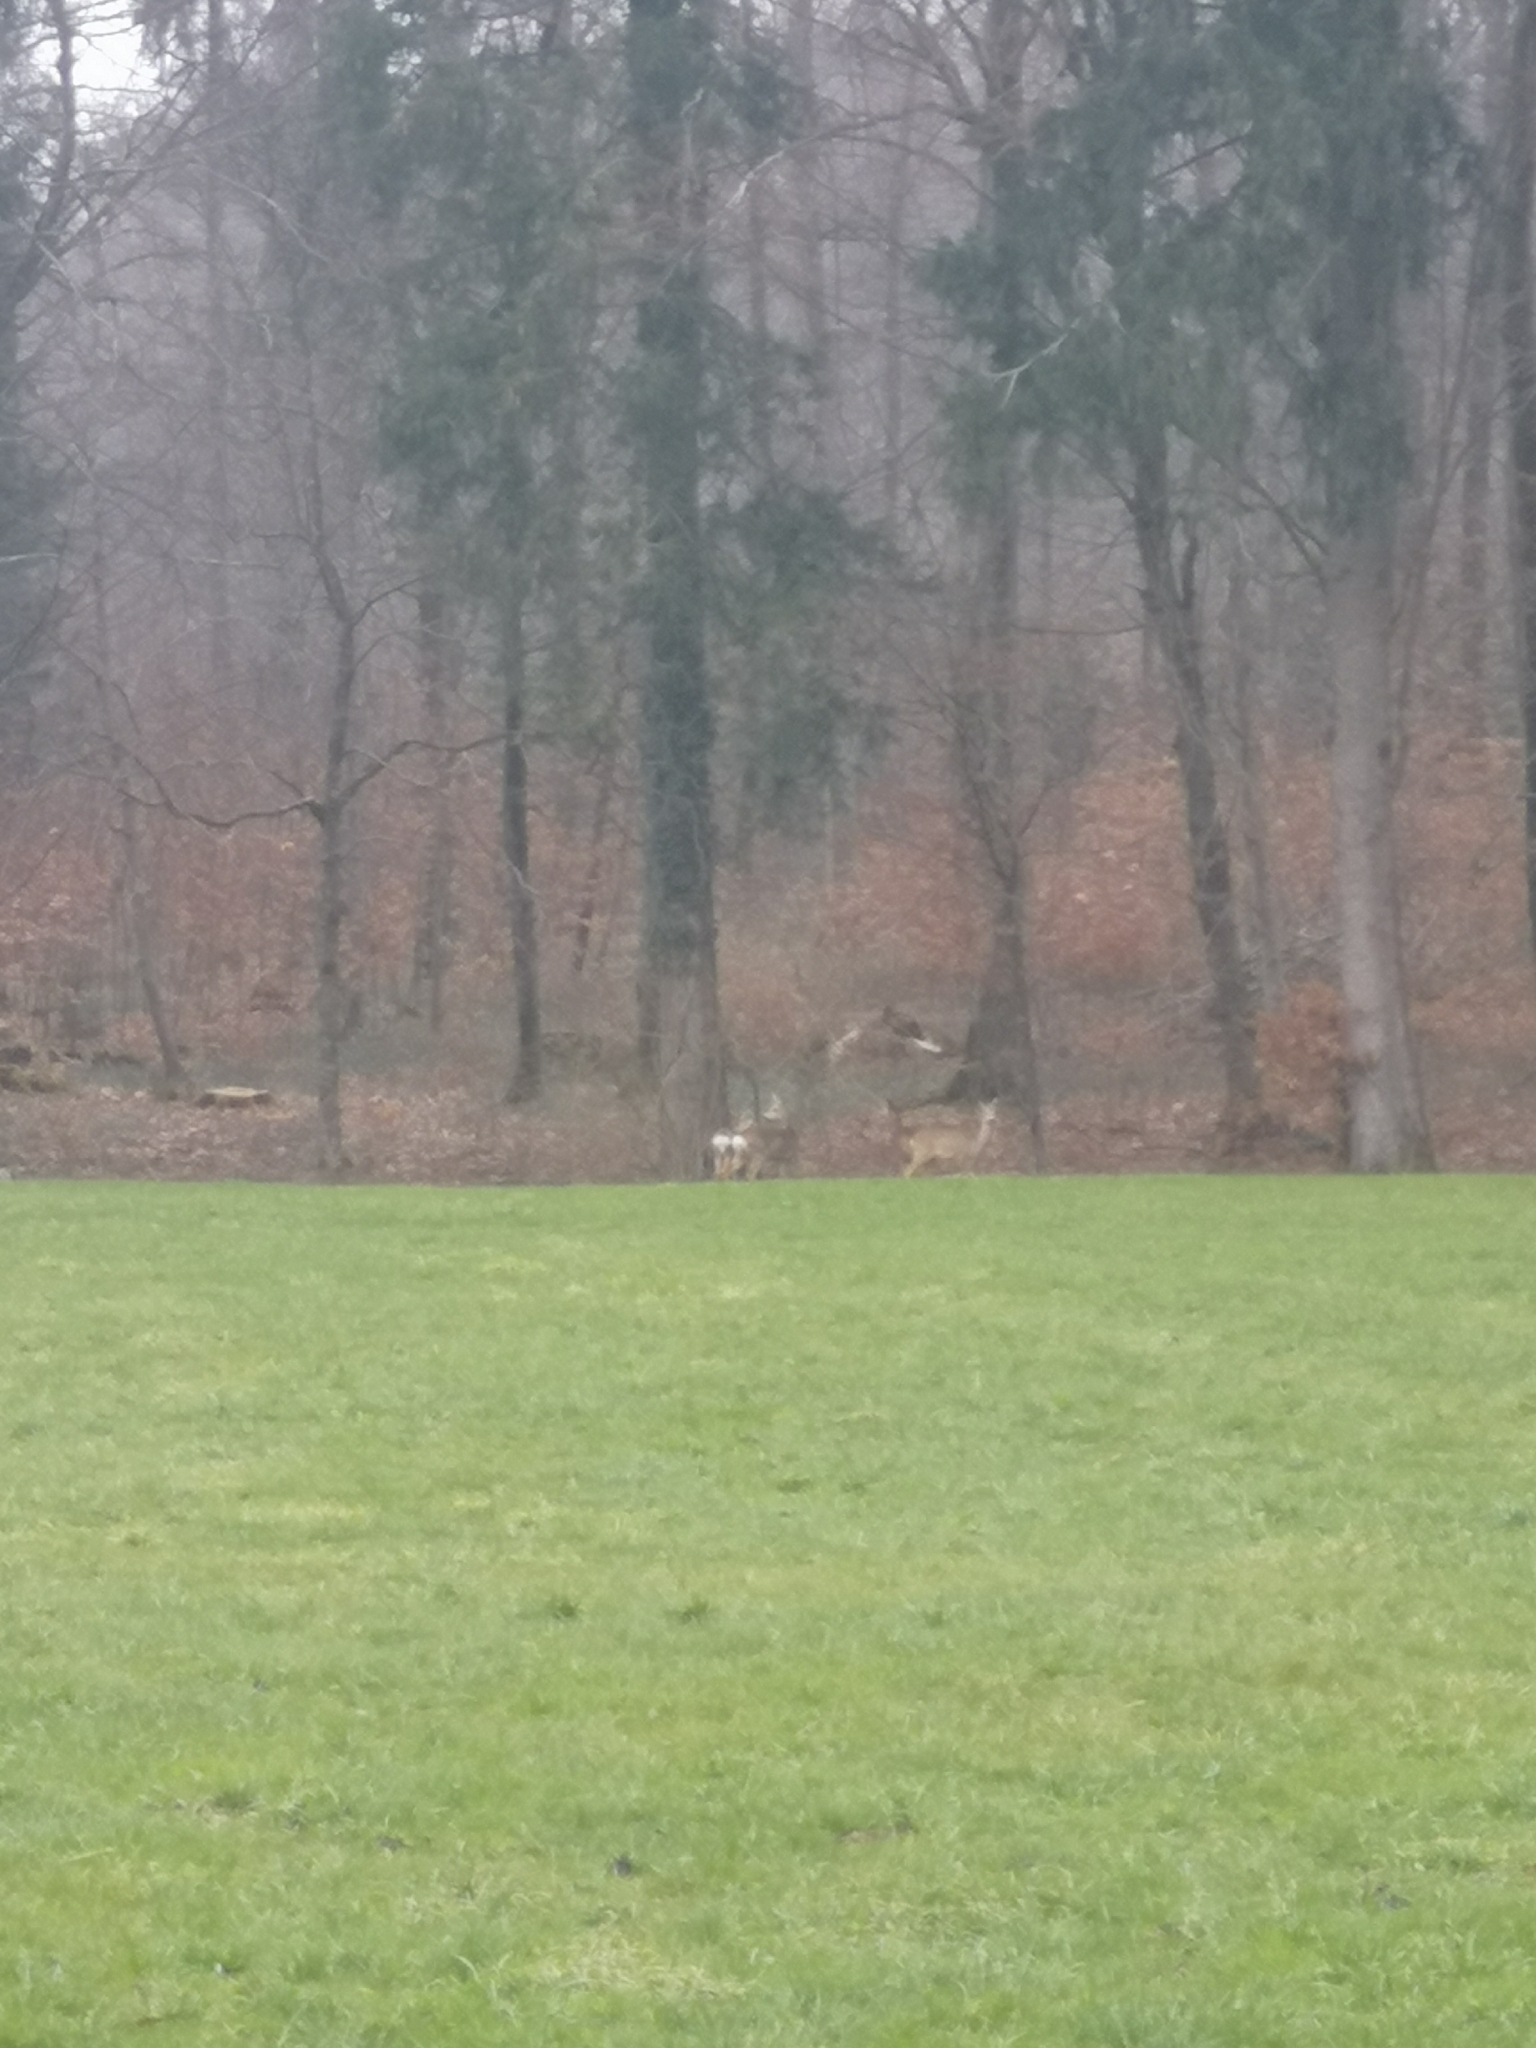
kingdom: Animalia
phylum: Chordata
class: Mammalia
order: Artiodactyla
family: Cervidae
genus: Capreolus
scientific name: Capreolus capreolus
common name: Western roe deer
